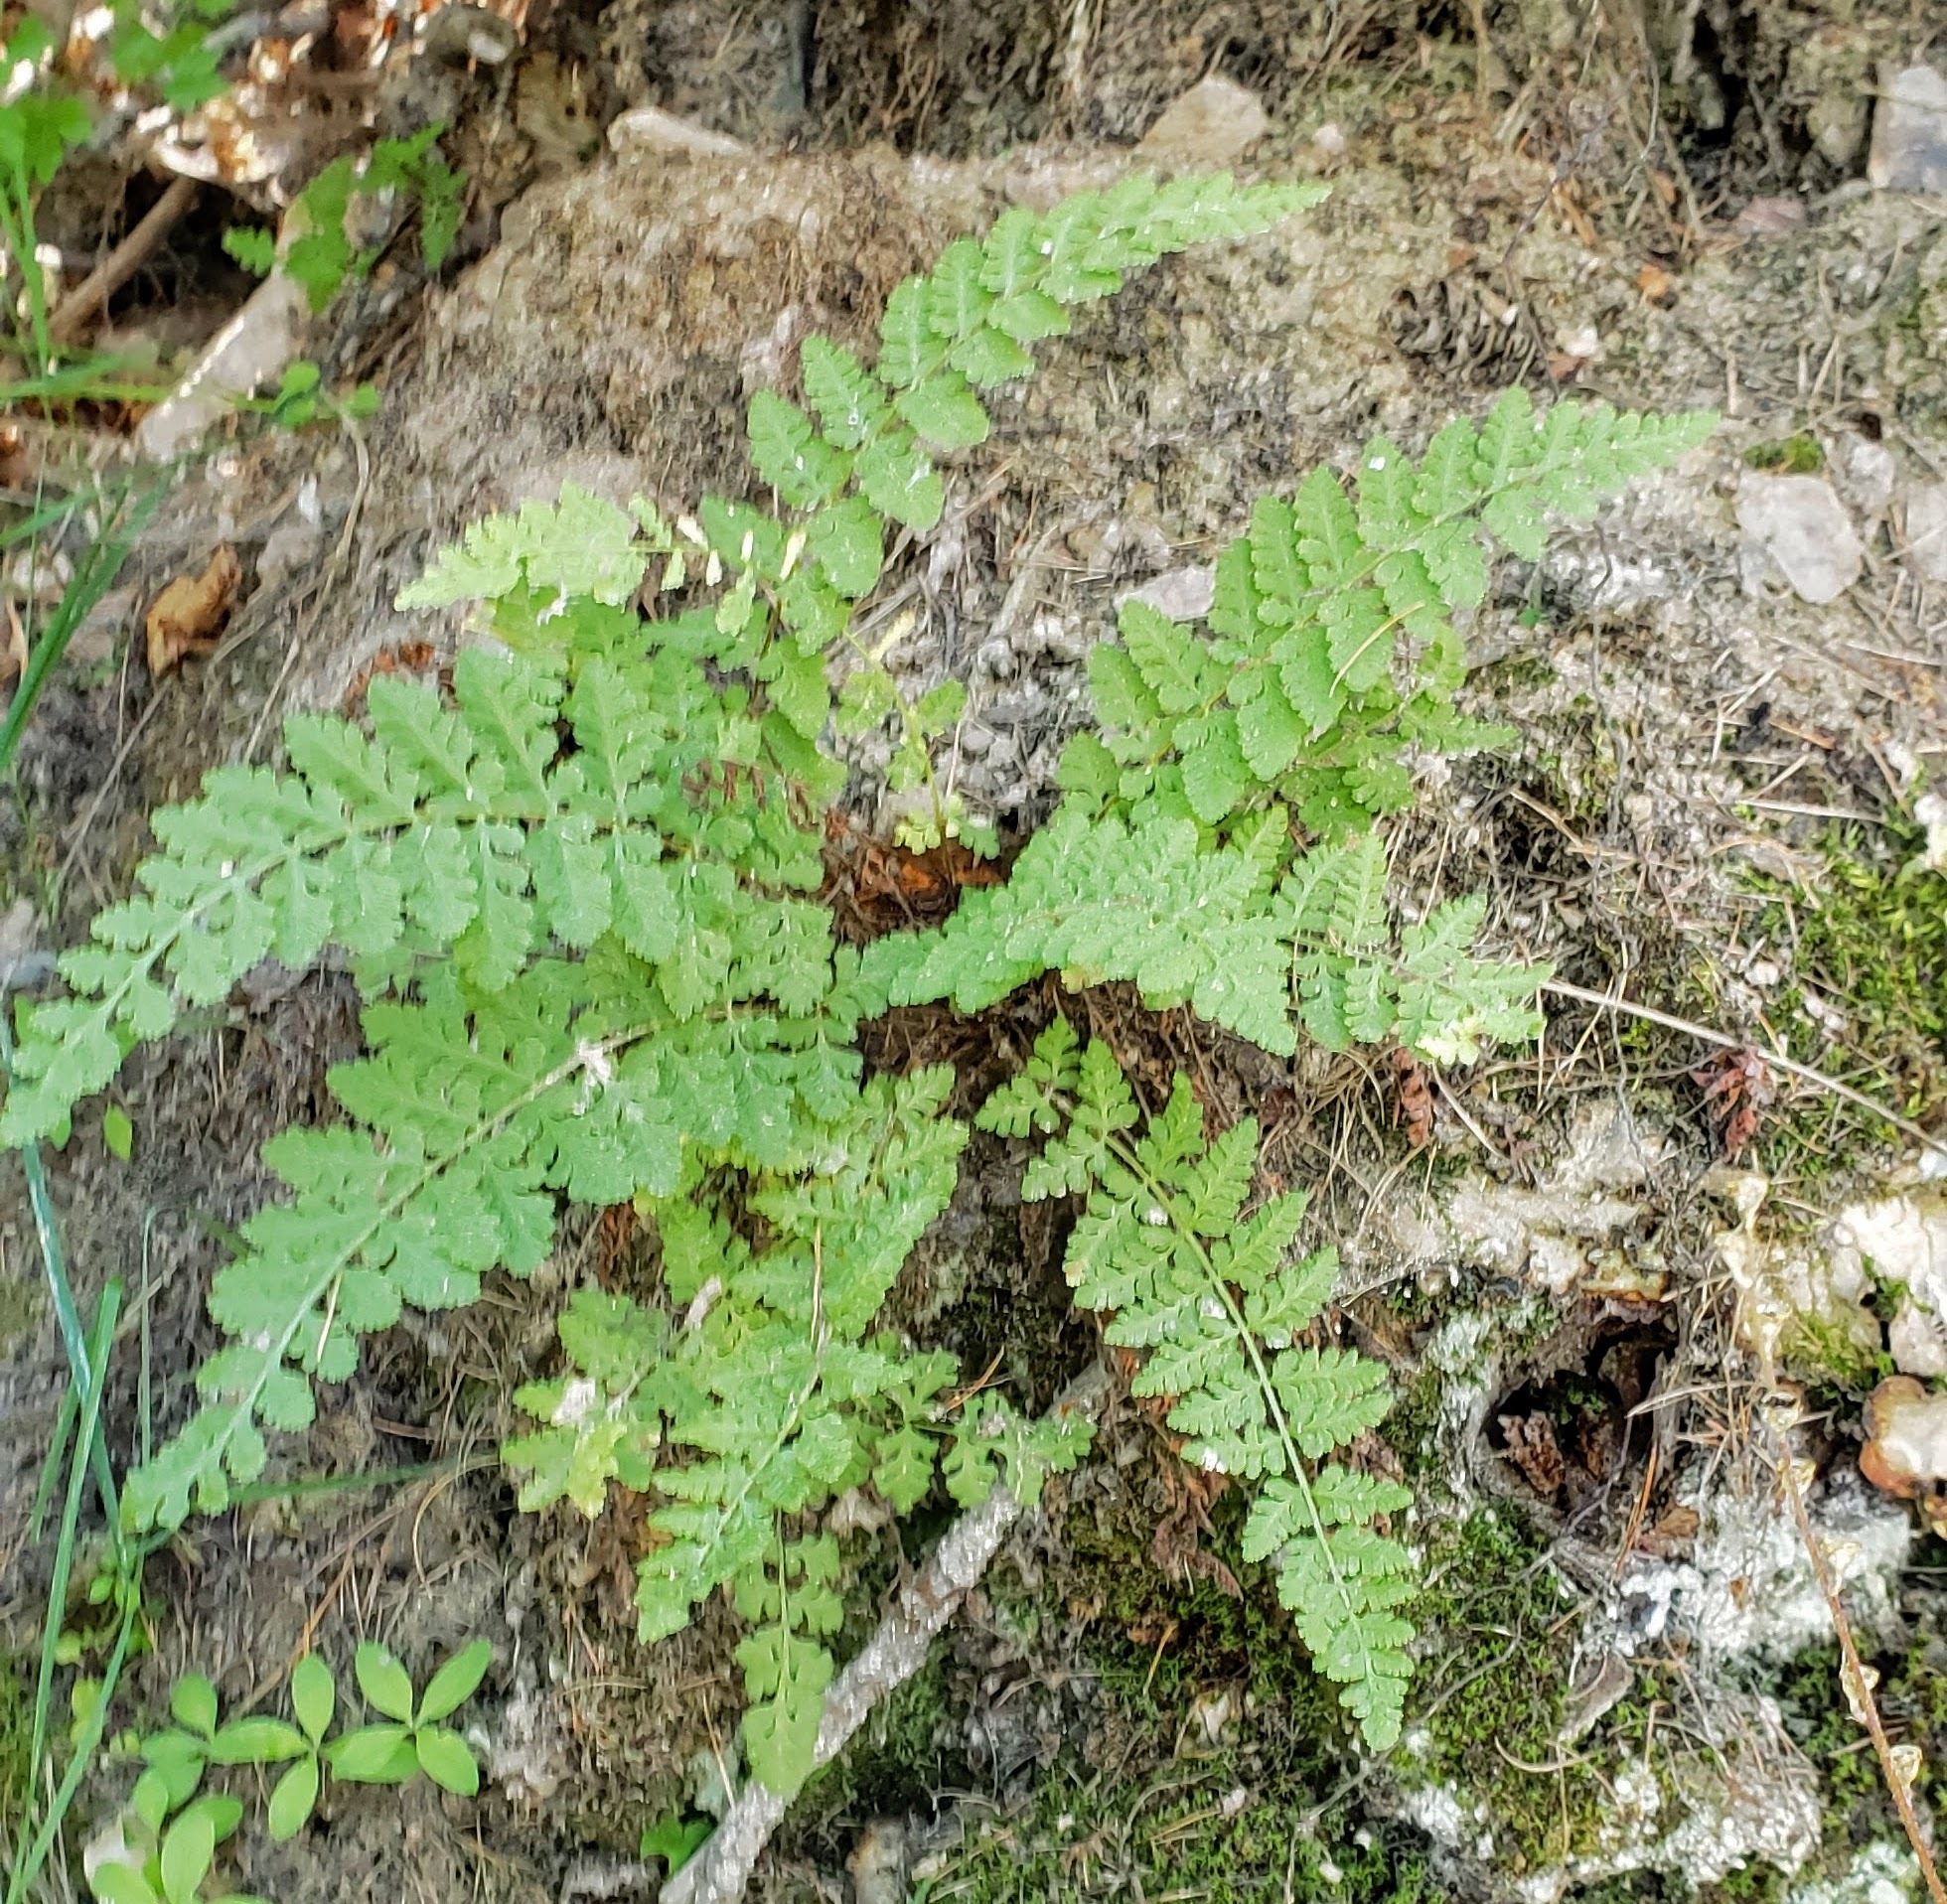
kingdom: Plantae
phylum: Tracheophyta
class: Polypodiopsida
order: Polypodiales
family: Woodsiaceae
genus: Physematium
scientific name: Physematium scopulinum
